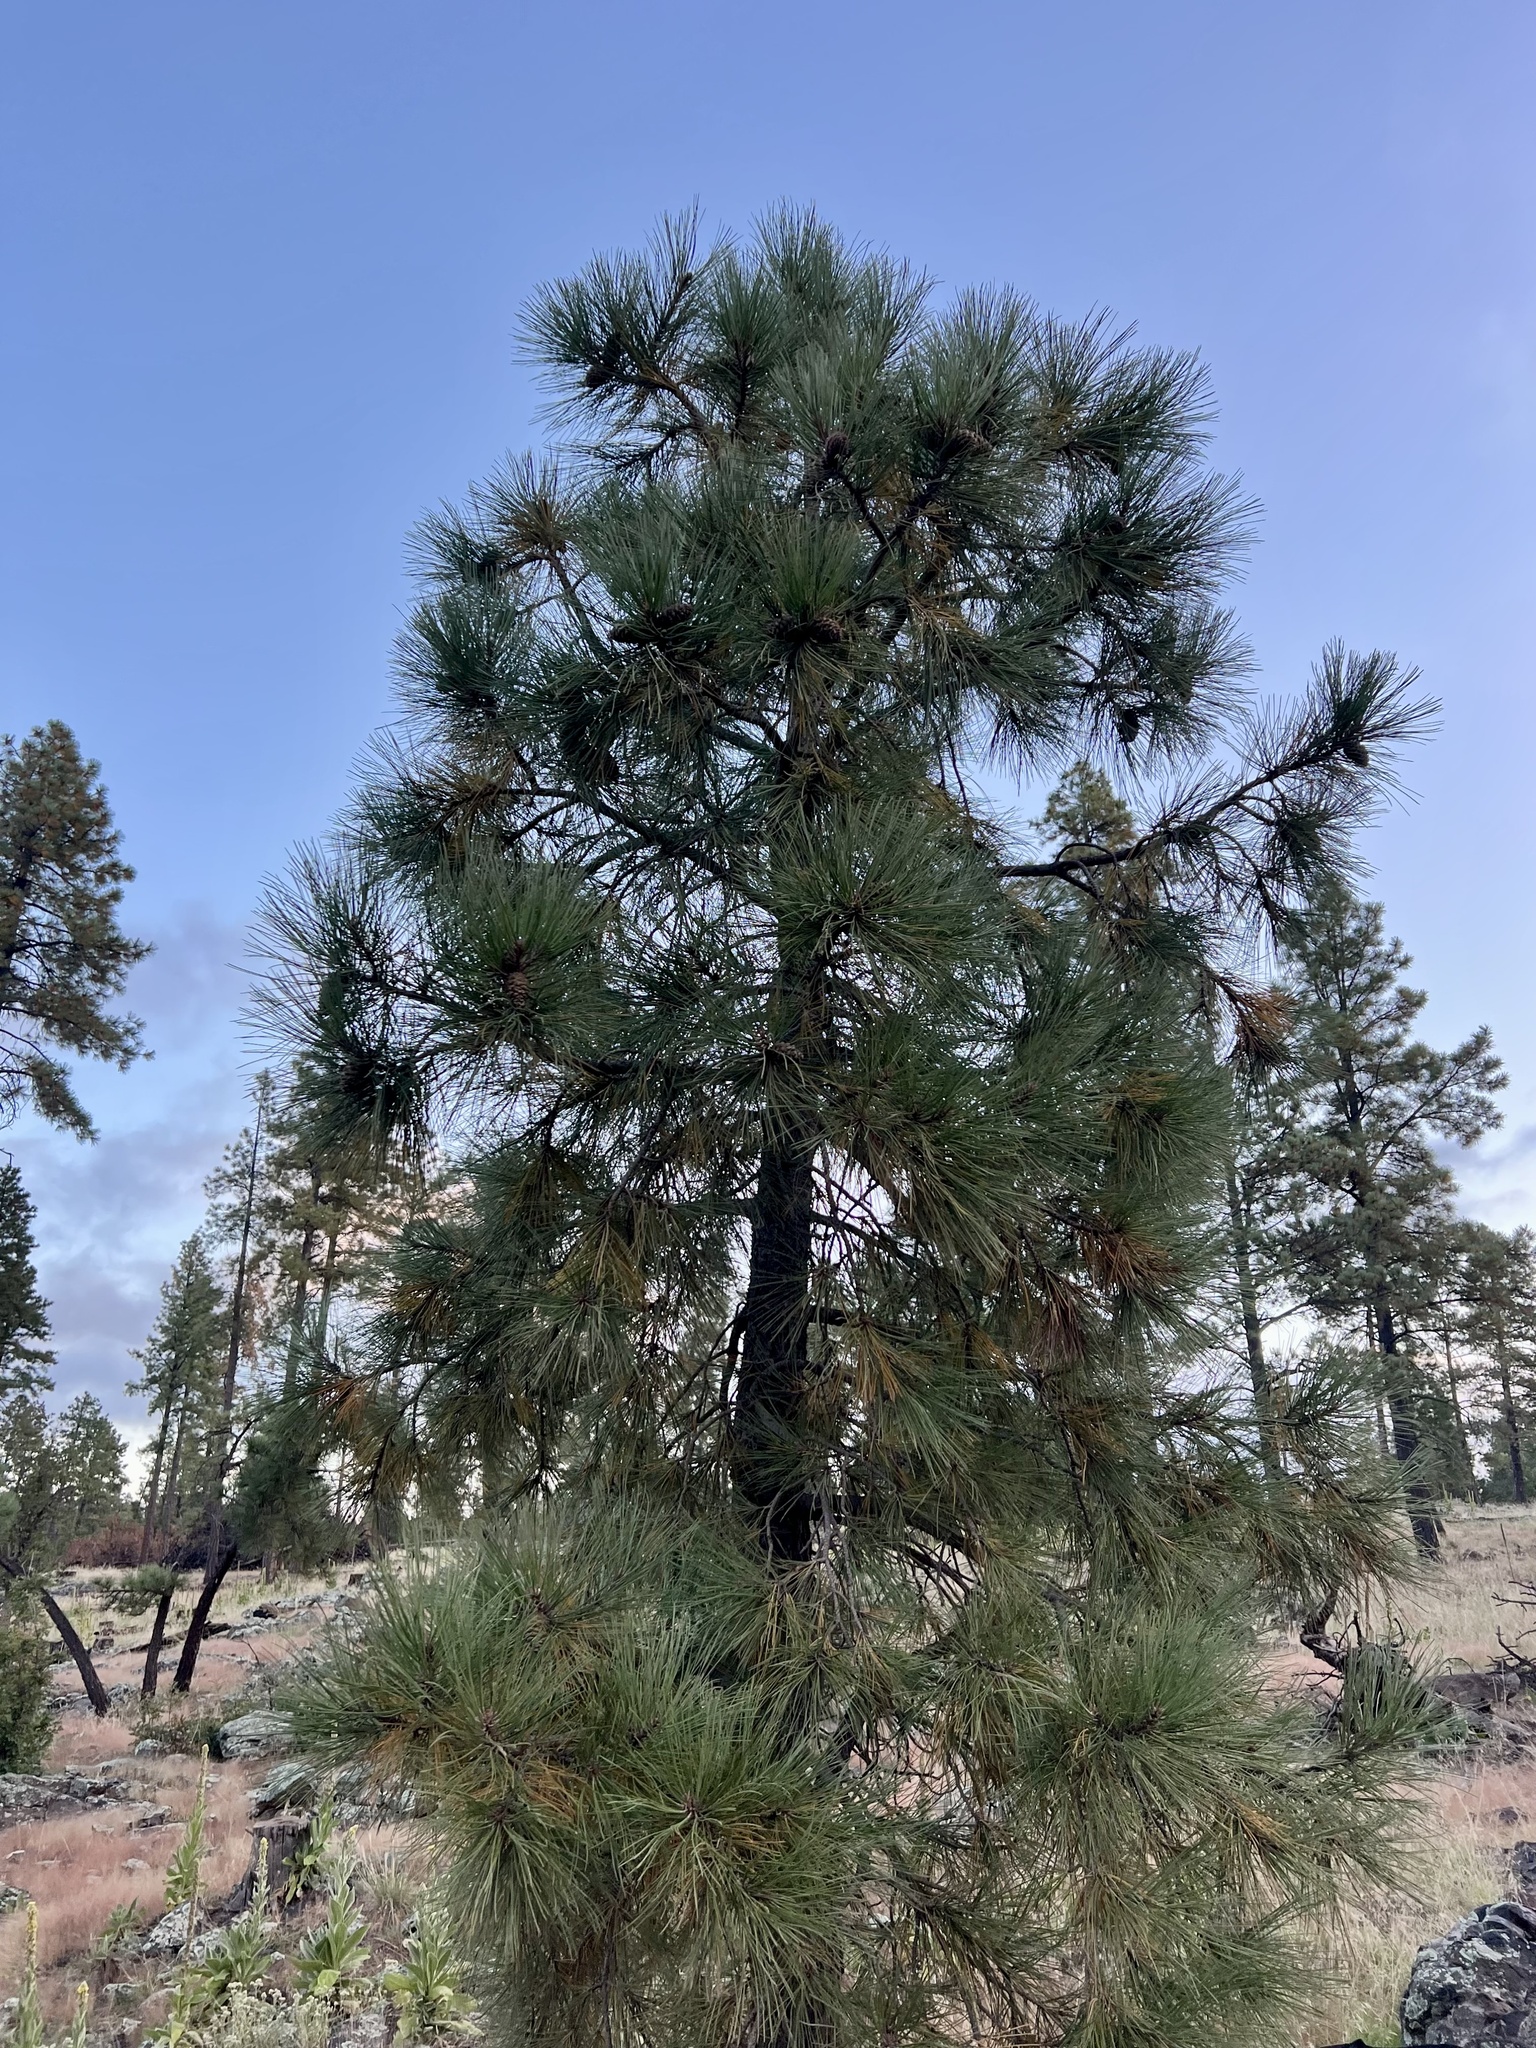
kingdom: Plantae
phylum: Tracheophyta
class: Pinopsida
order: Pinales
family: Pinaceae
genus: Pinus
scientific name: Pinus ponderosa
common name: Western yellow-pine
